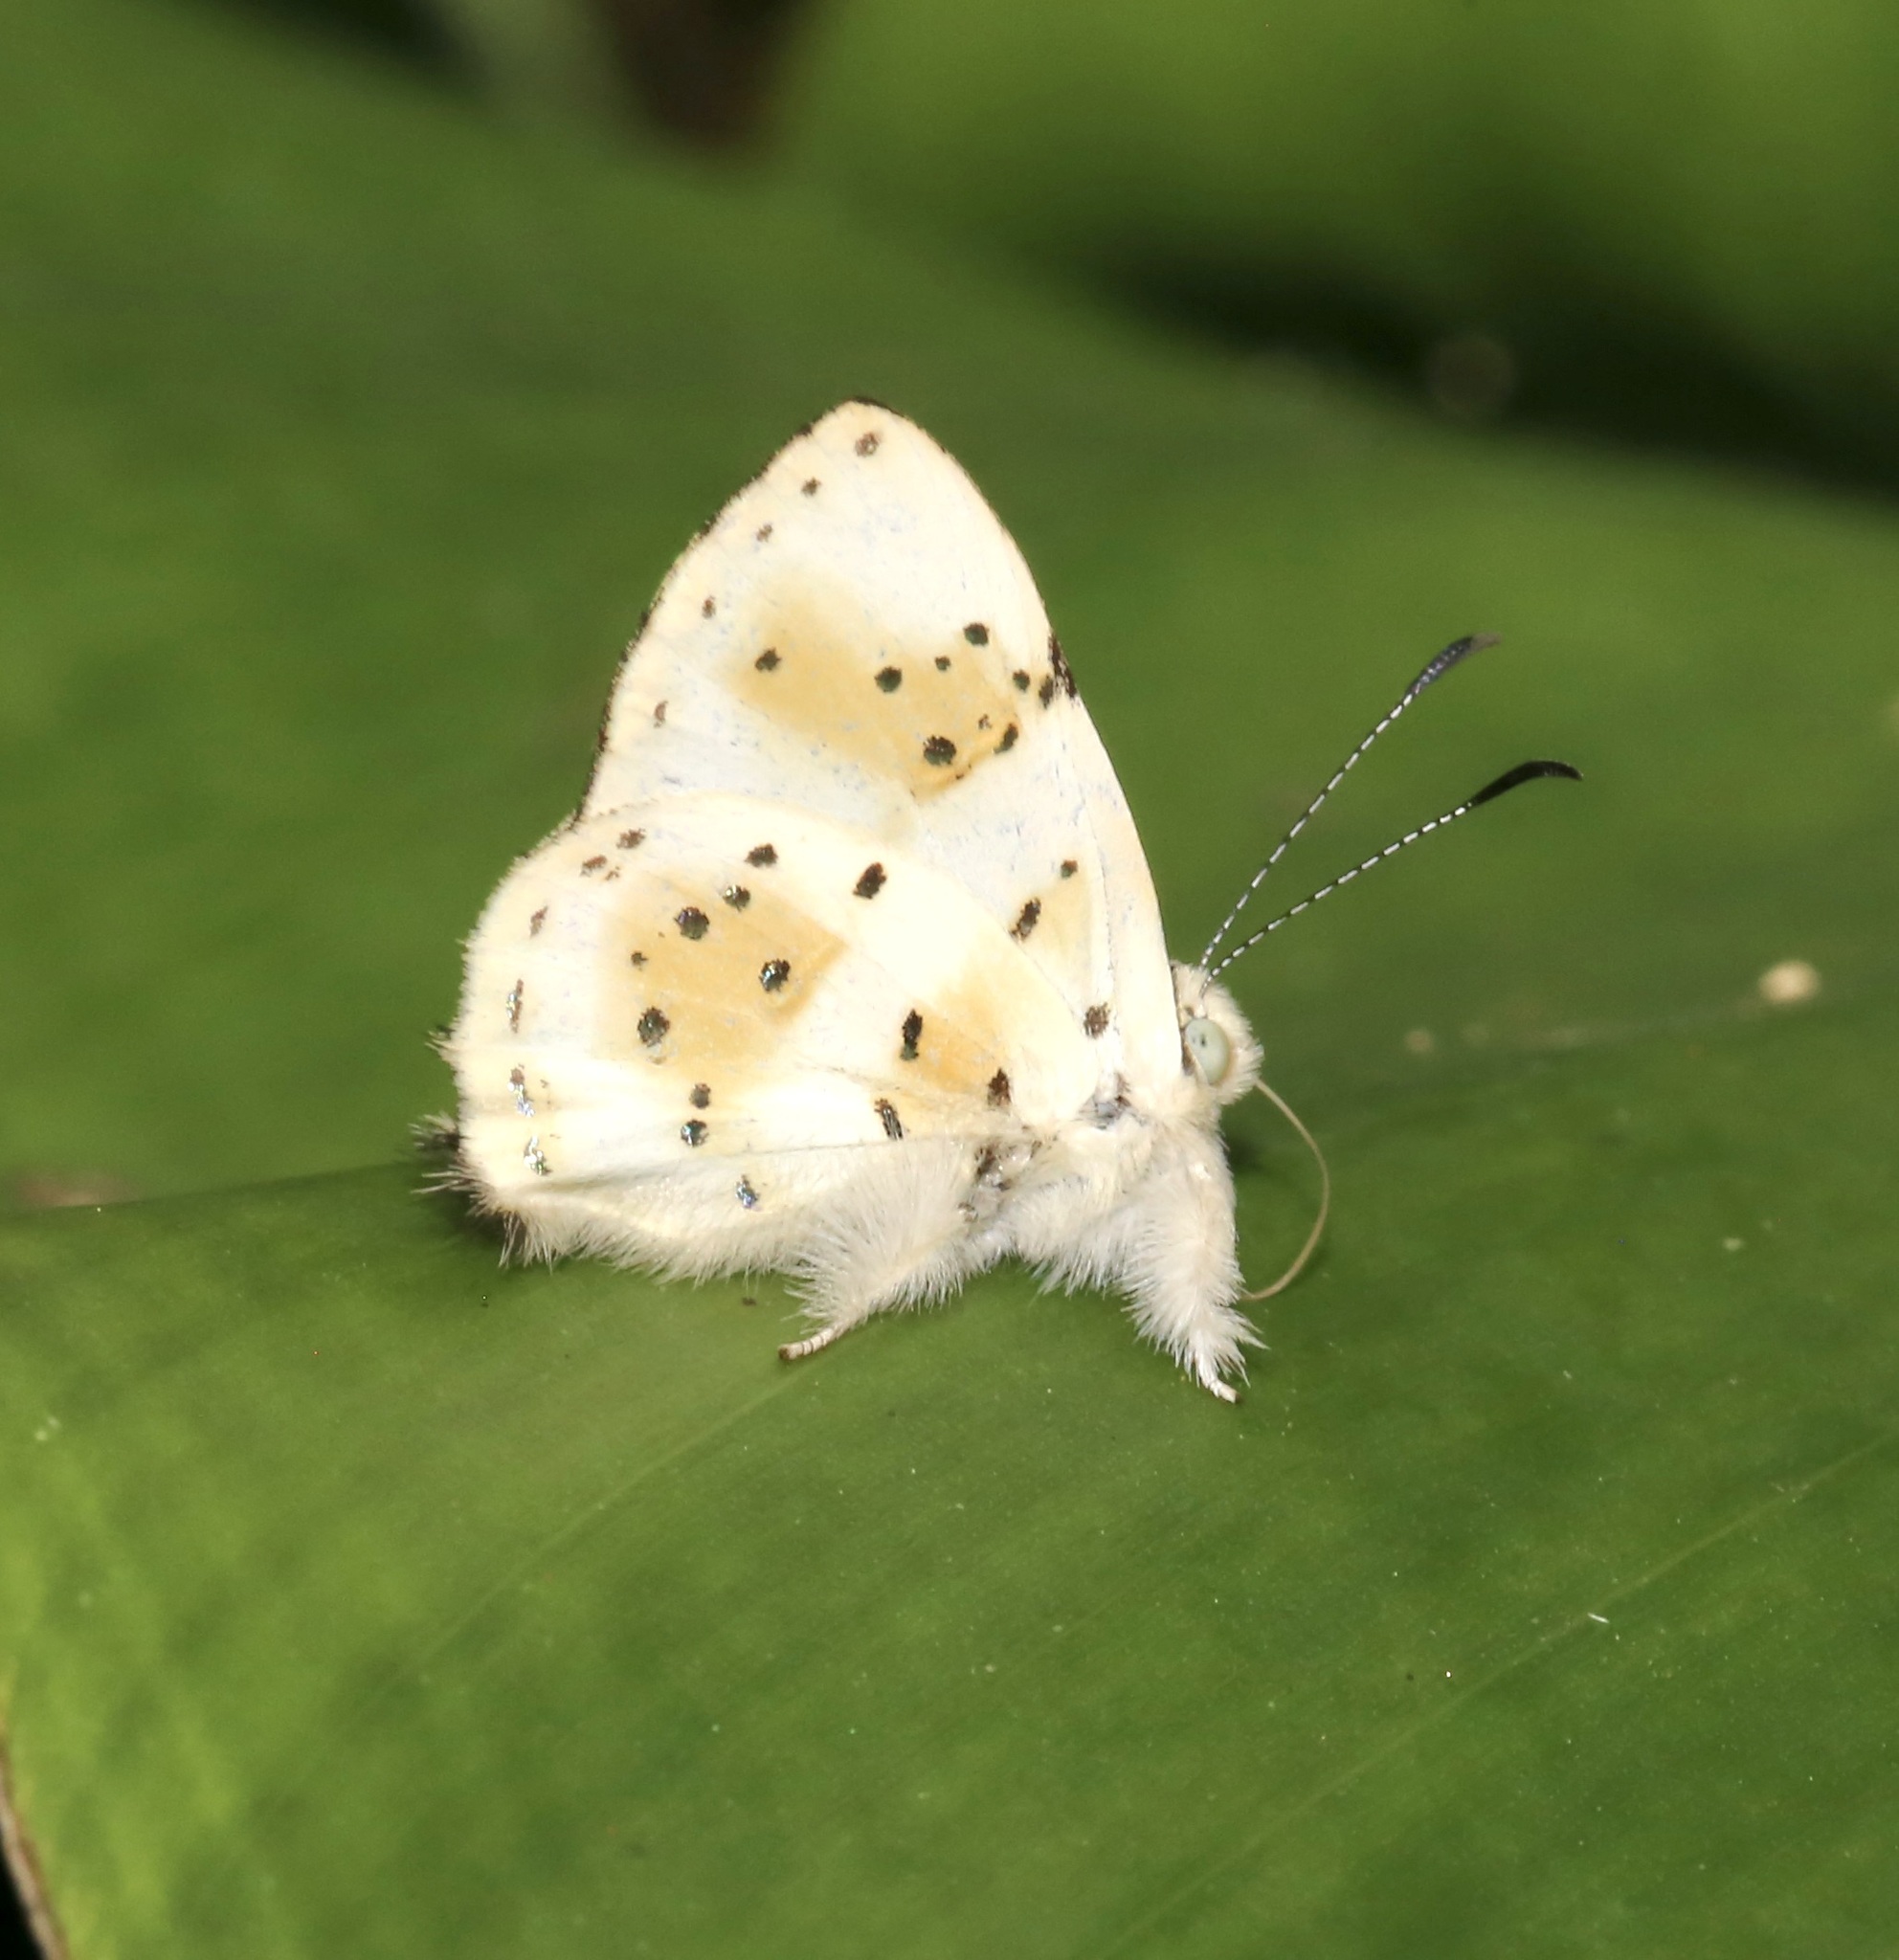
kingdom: Animalia
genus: Anteros
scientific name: Anteros chrysoprastus
